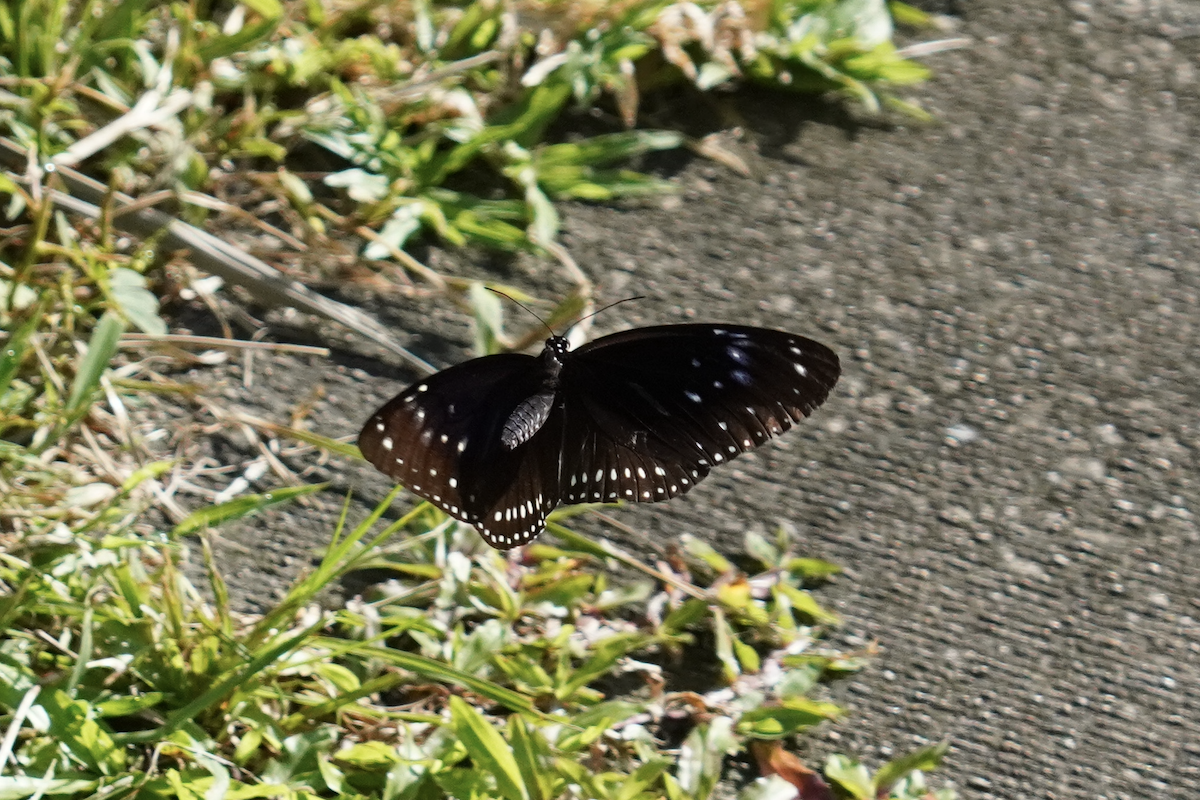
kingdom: Animalia
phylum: Arthropoda
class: Insecta
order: Lepidoptera
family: Nymphalidae
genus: Euploea
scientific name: Euploea midamus
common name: Blue-spotted crow butterfly
